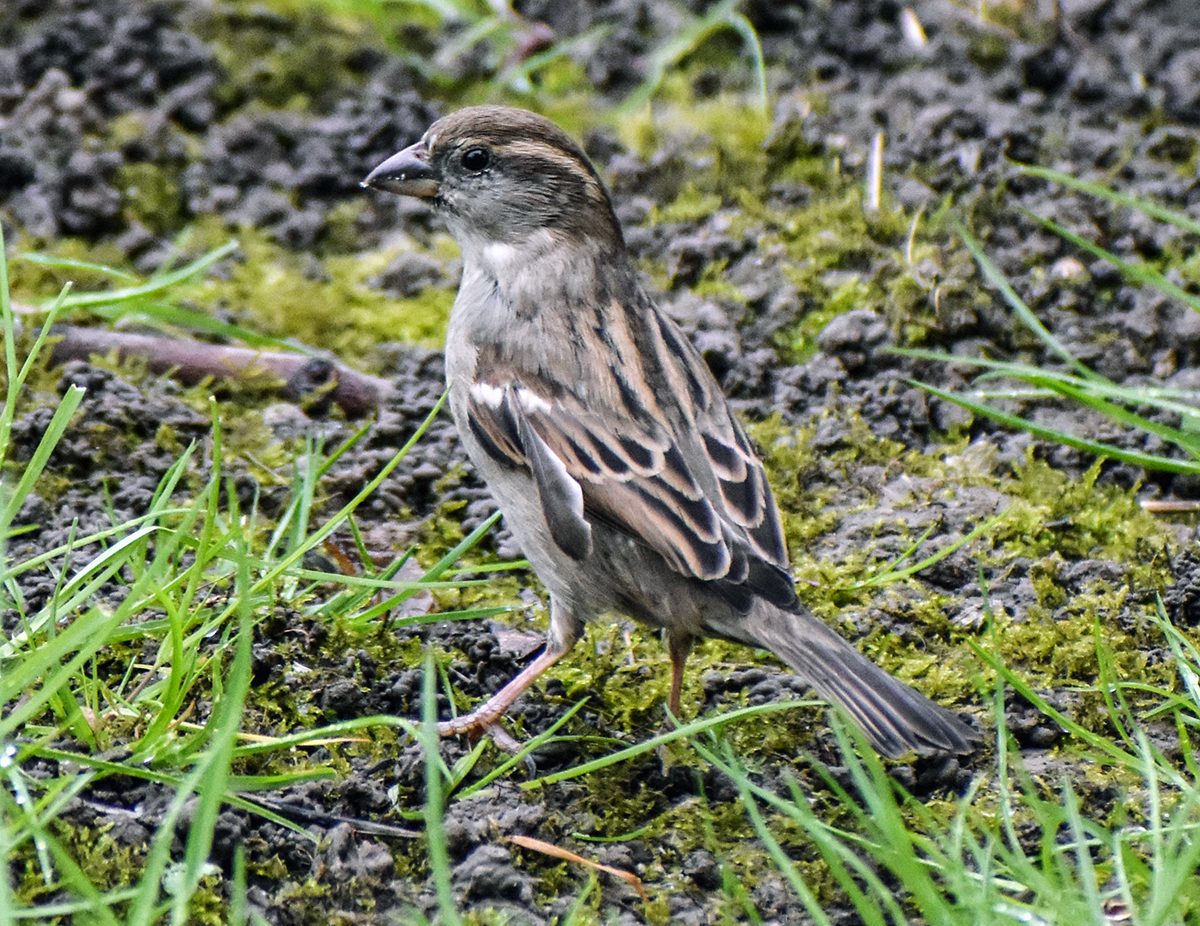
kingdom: Animalia
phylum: Chordata
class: Aves
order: Passeriformes
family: Passeridae
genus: Passer
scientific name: Passer italiae
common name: Italian sparrow
